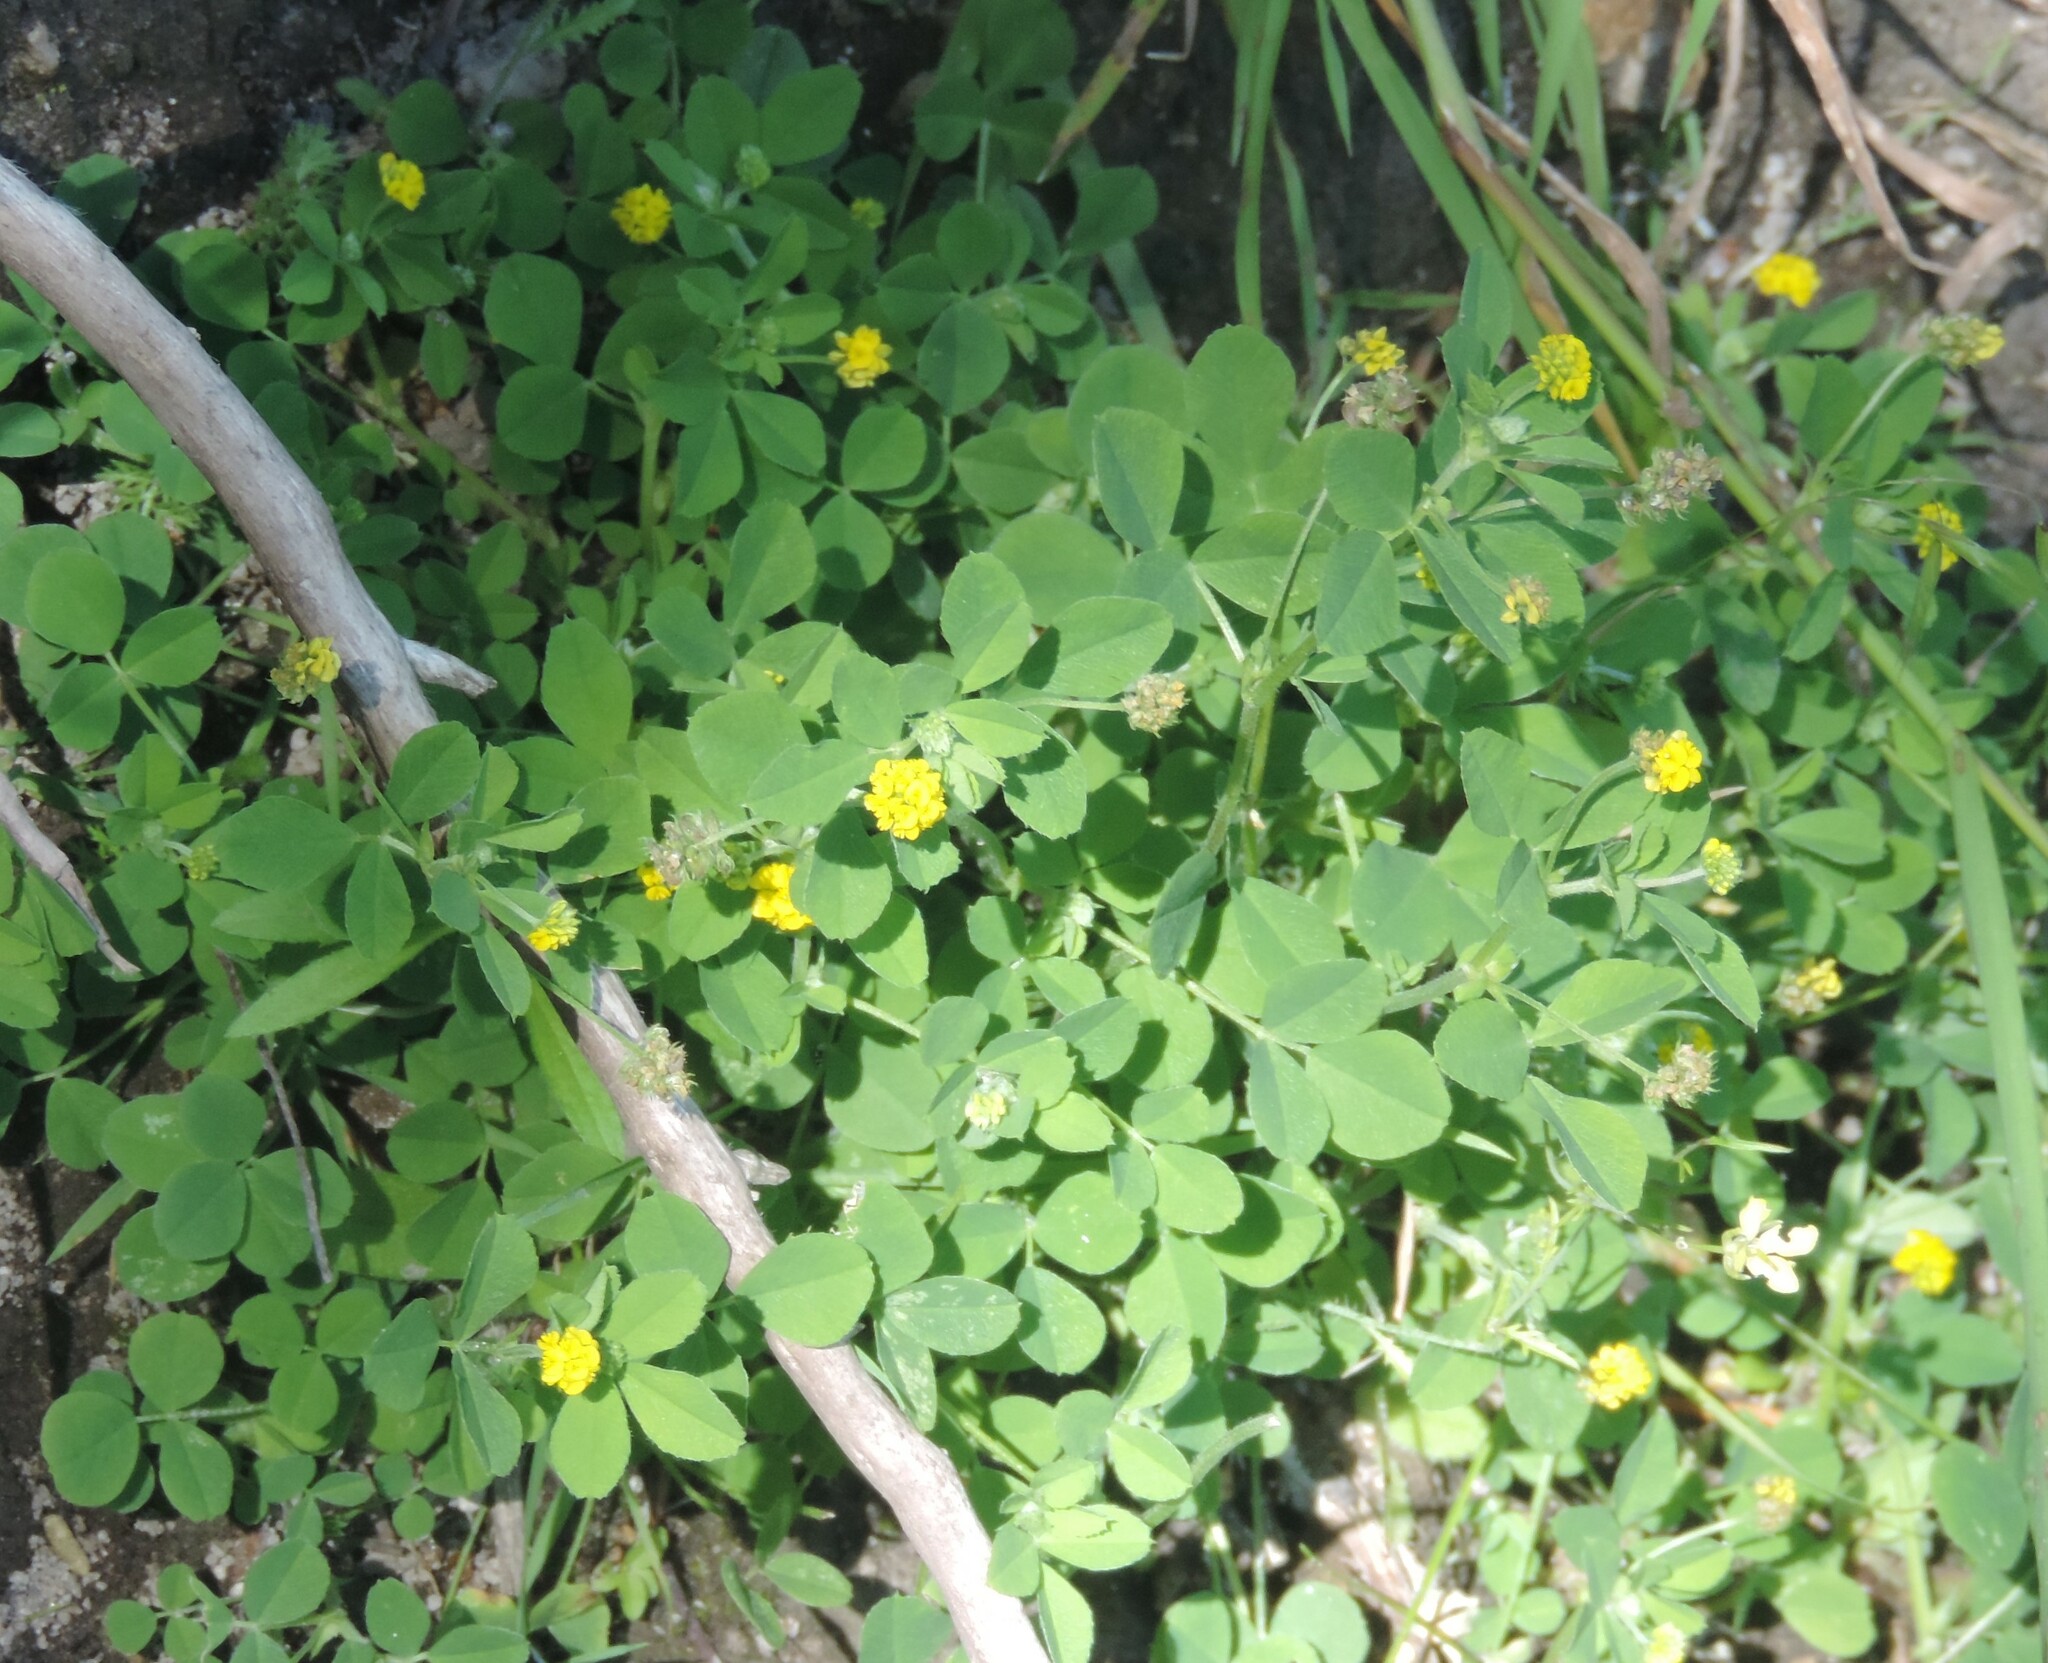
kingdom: Plantae
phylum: Tracheophyta
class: Magnoliopsida
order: Fabales
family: Fabaceae
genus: Medicago
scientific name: Medicago lupulina
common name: Black medick
